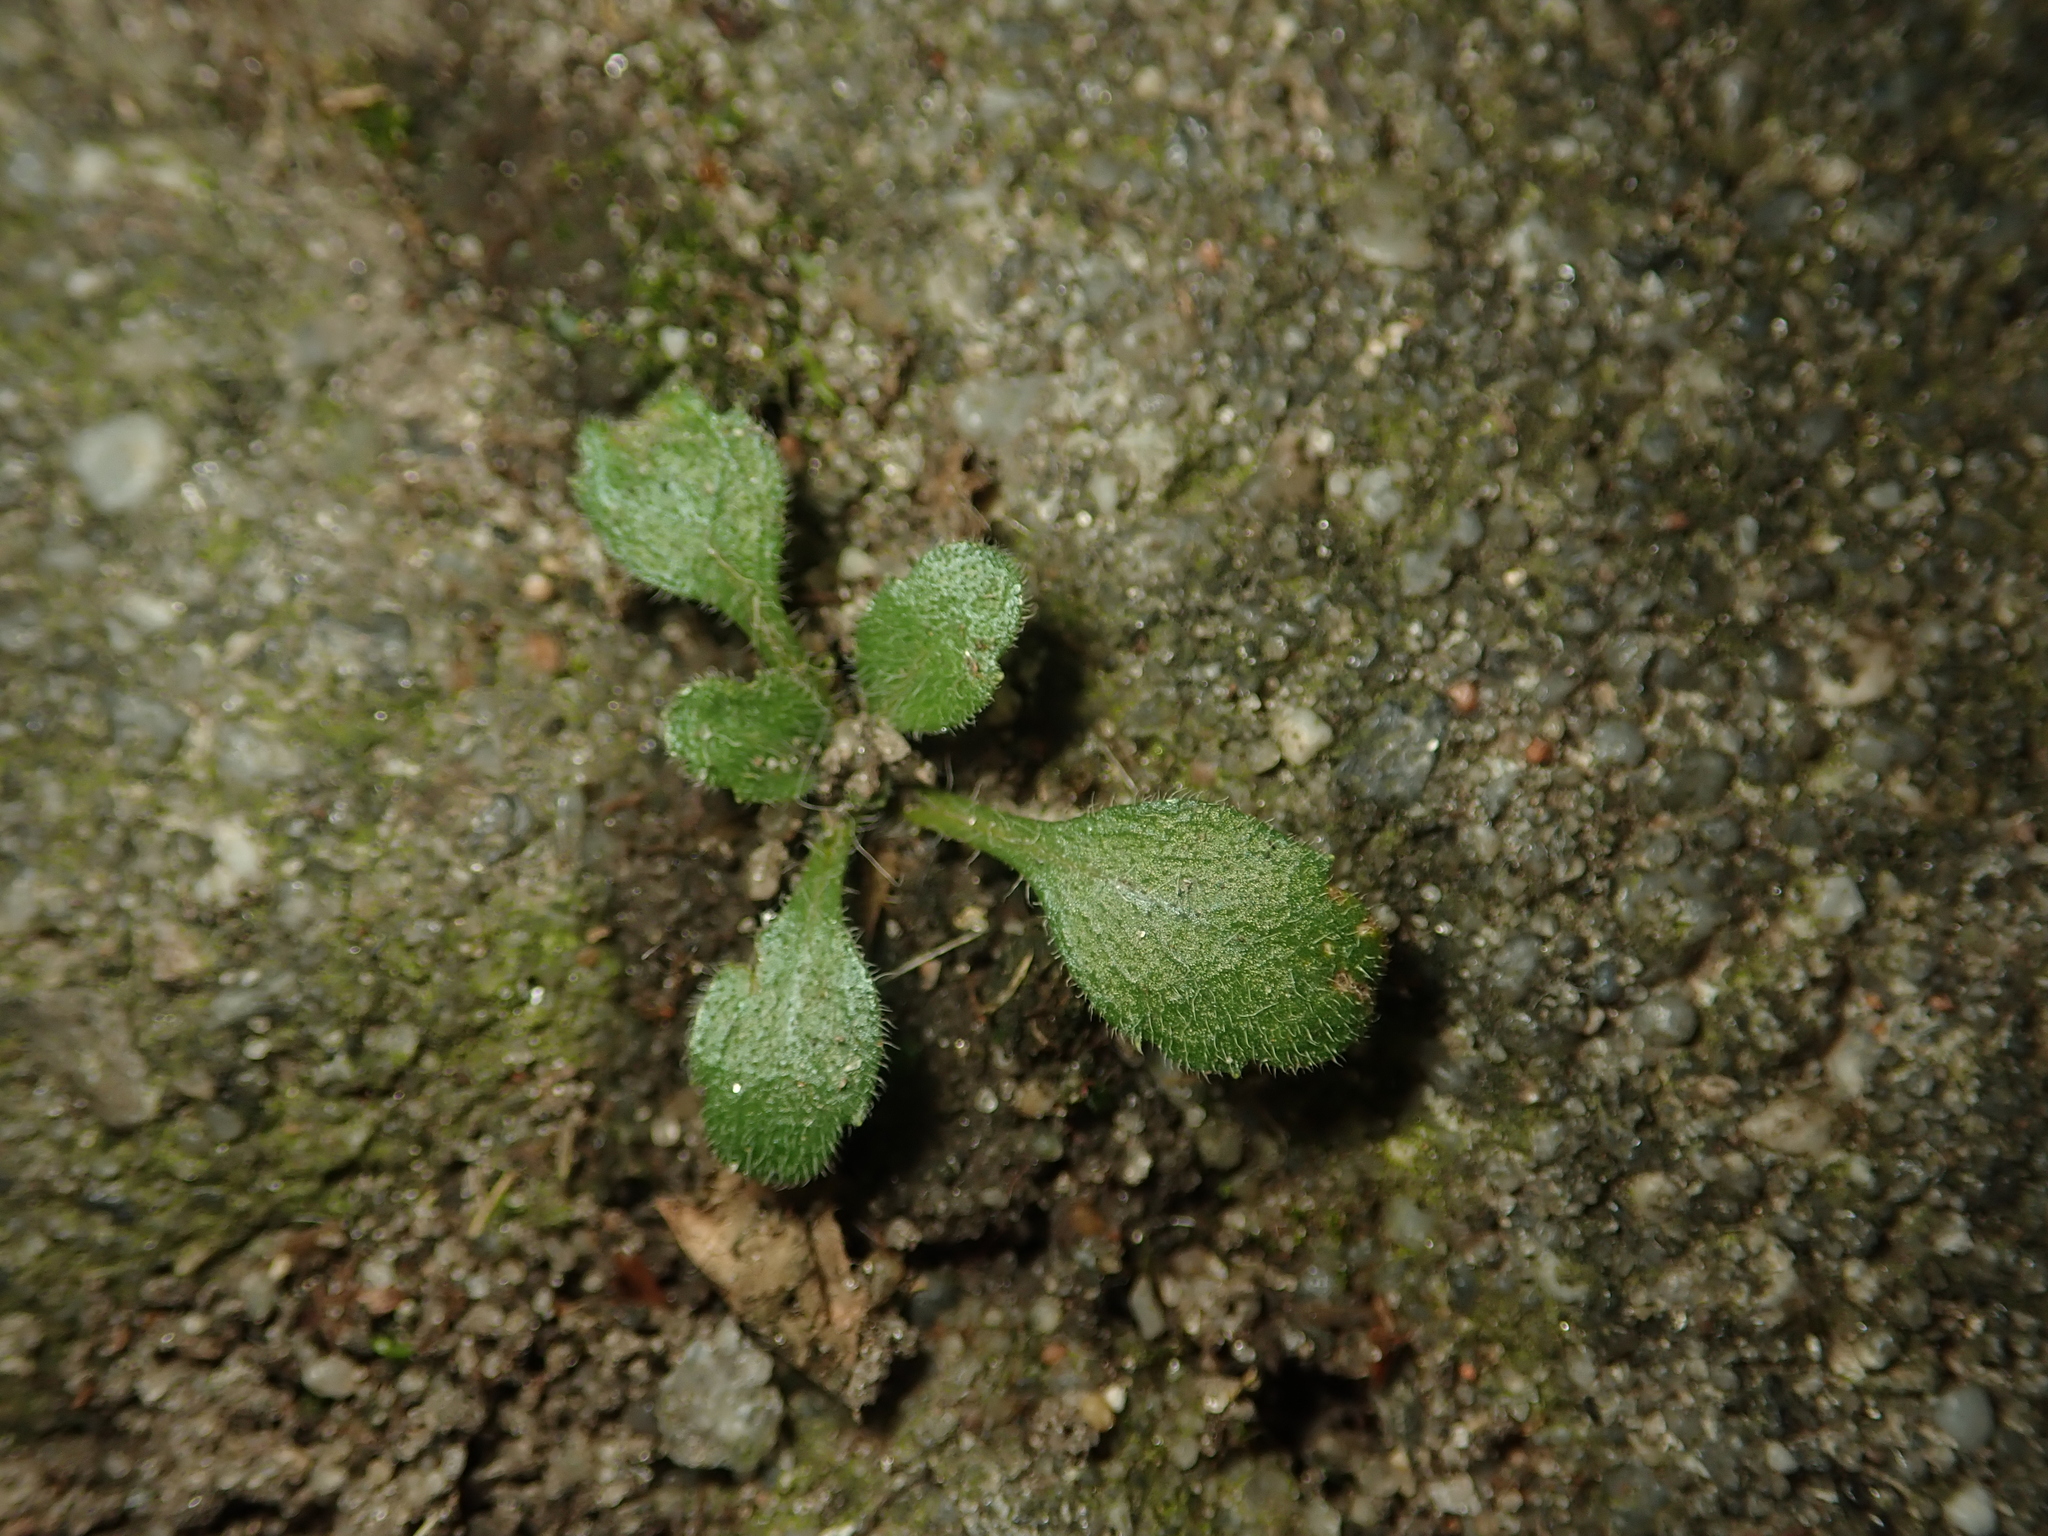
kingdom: Plantae
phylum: Tracheophyta
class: Magnoliopsida
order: Asterales
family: Asteraceae
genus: Erigeron
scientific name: Erigeron canadensis
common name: Canadian fleabane
